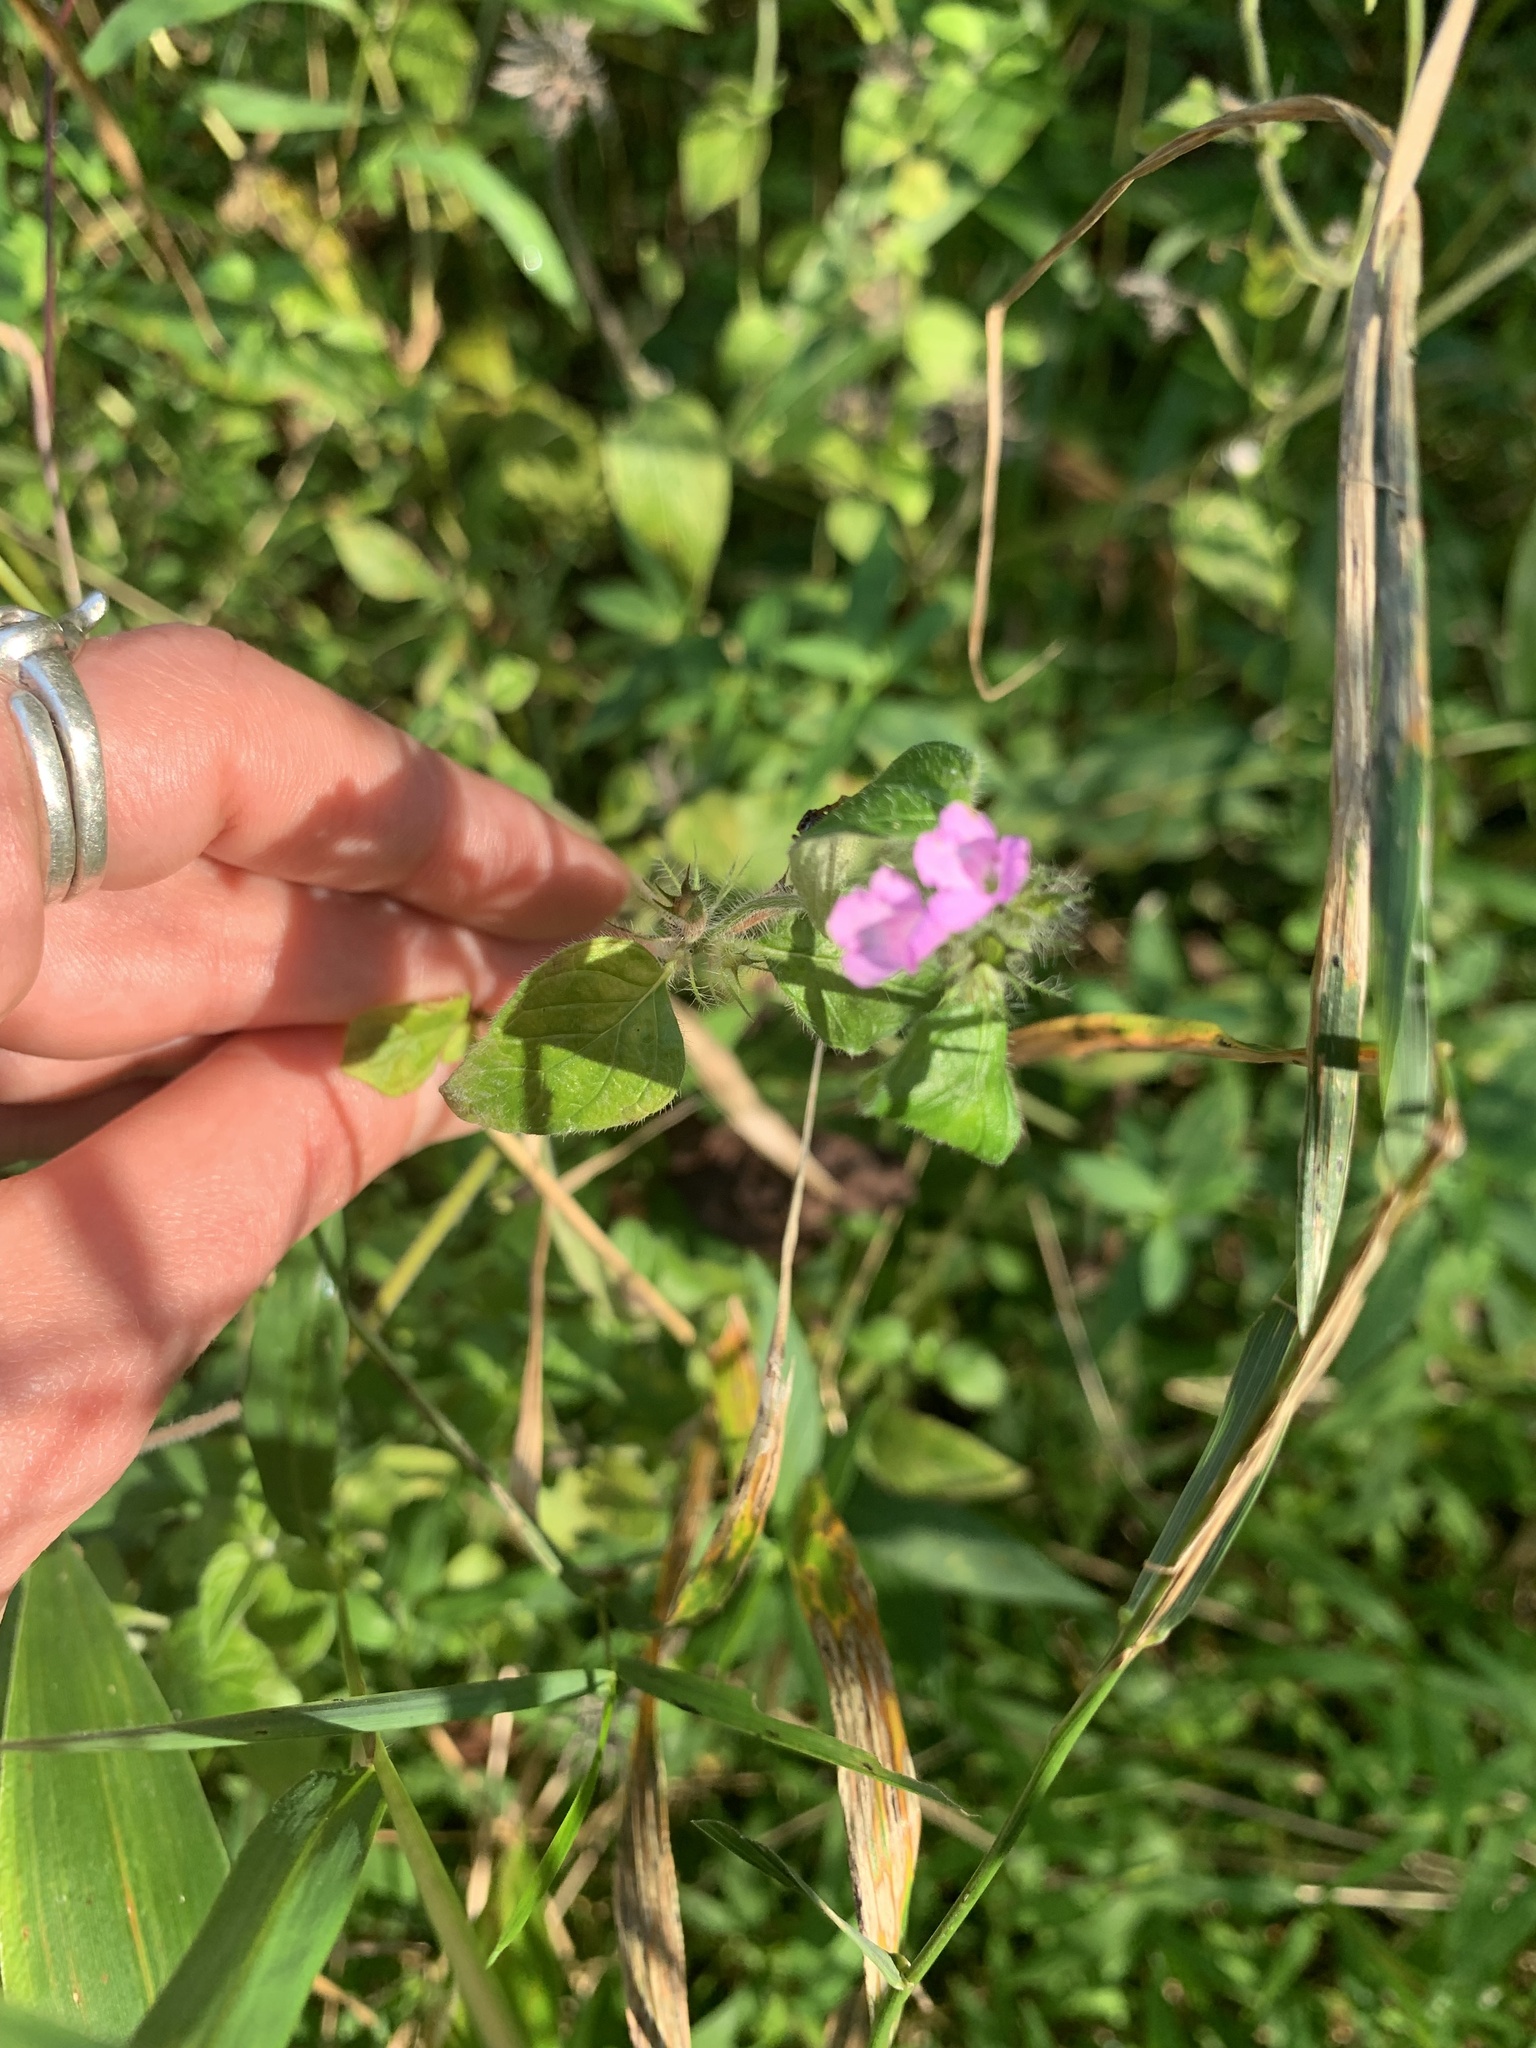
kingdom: Plantae
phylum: Tracheophyta
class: Magnoliopsida
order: Lamiales
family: Lamiaceae
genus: Clinopodium
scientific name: Clinopodium vulgare
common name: Wild basil
